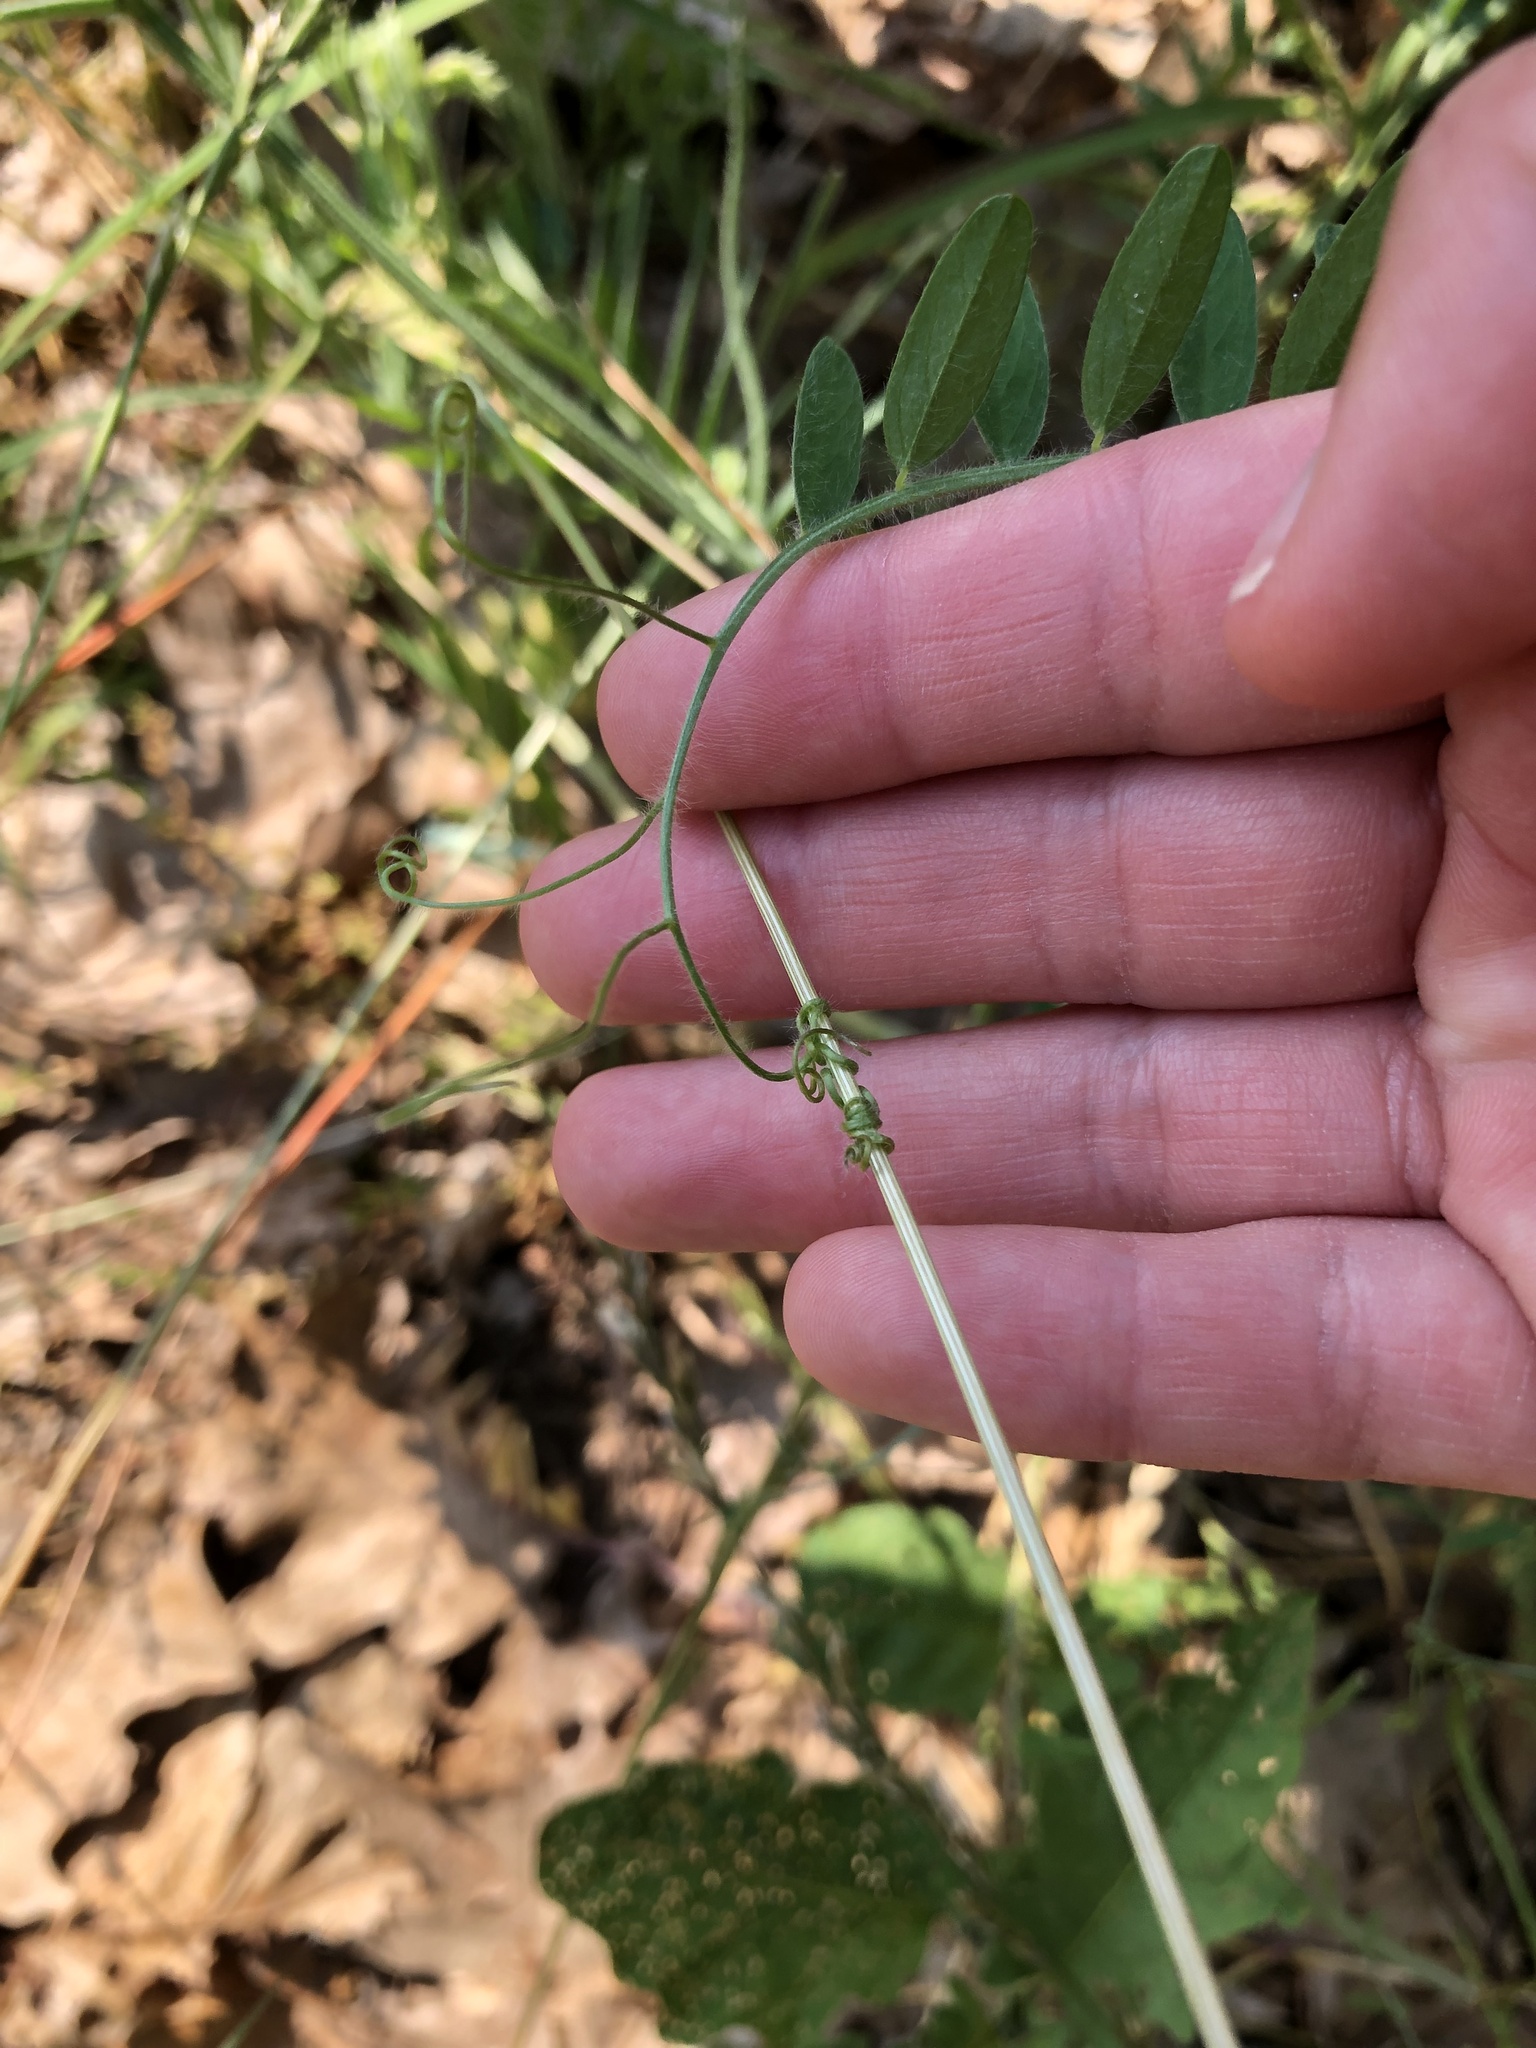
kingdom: Plantae
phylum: Tracheophyta
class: Magnoliopsida
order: Fabales
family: Fabaceae
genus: Vicia
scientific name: Vicia villosa
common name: Fodder vetch
